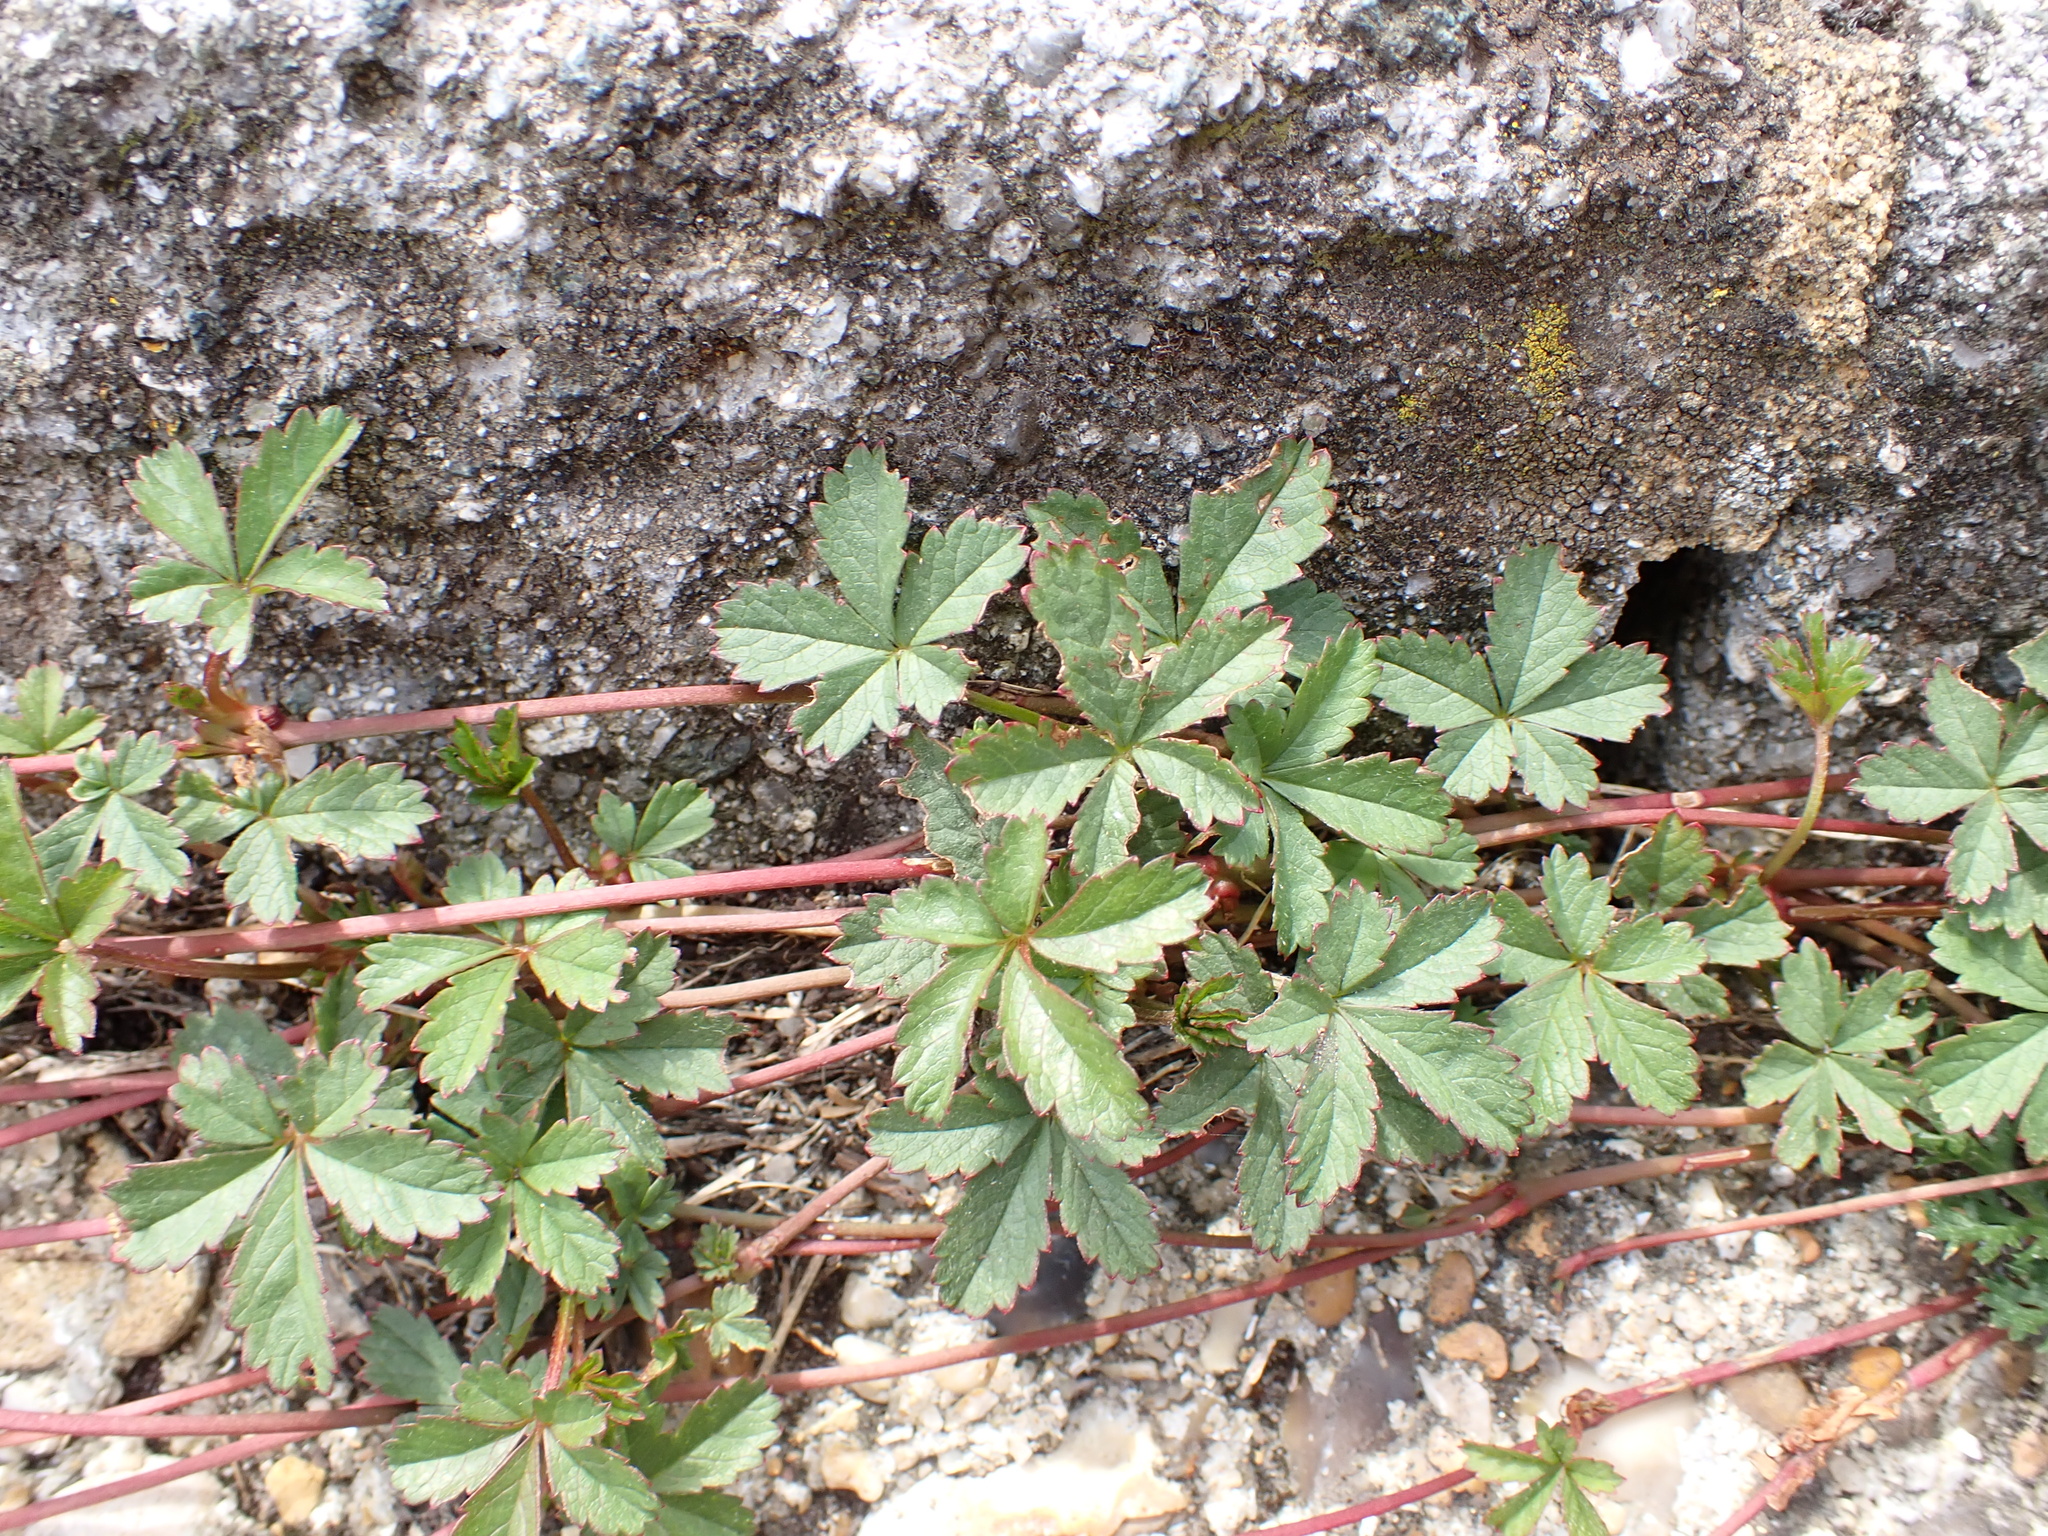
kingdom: Plantae
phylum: Tracheophyta
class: Magnoliopsida
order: Rosales
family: Rosaceae
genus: Potentilla
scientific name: Potentilla reptans
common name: Creeping cinquefoil
